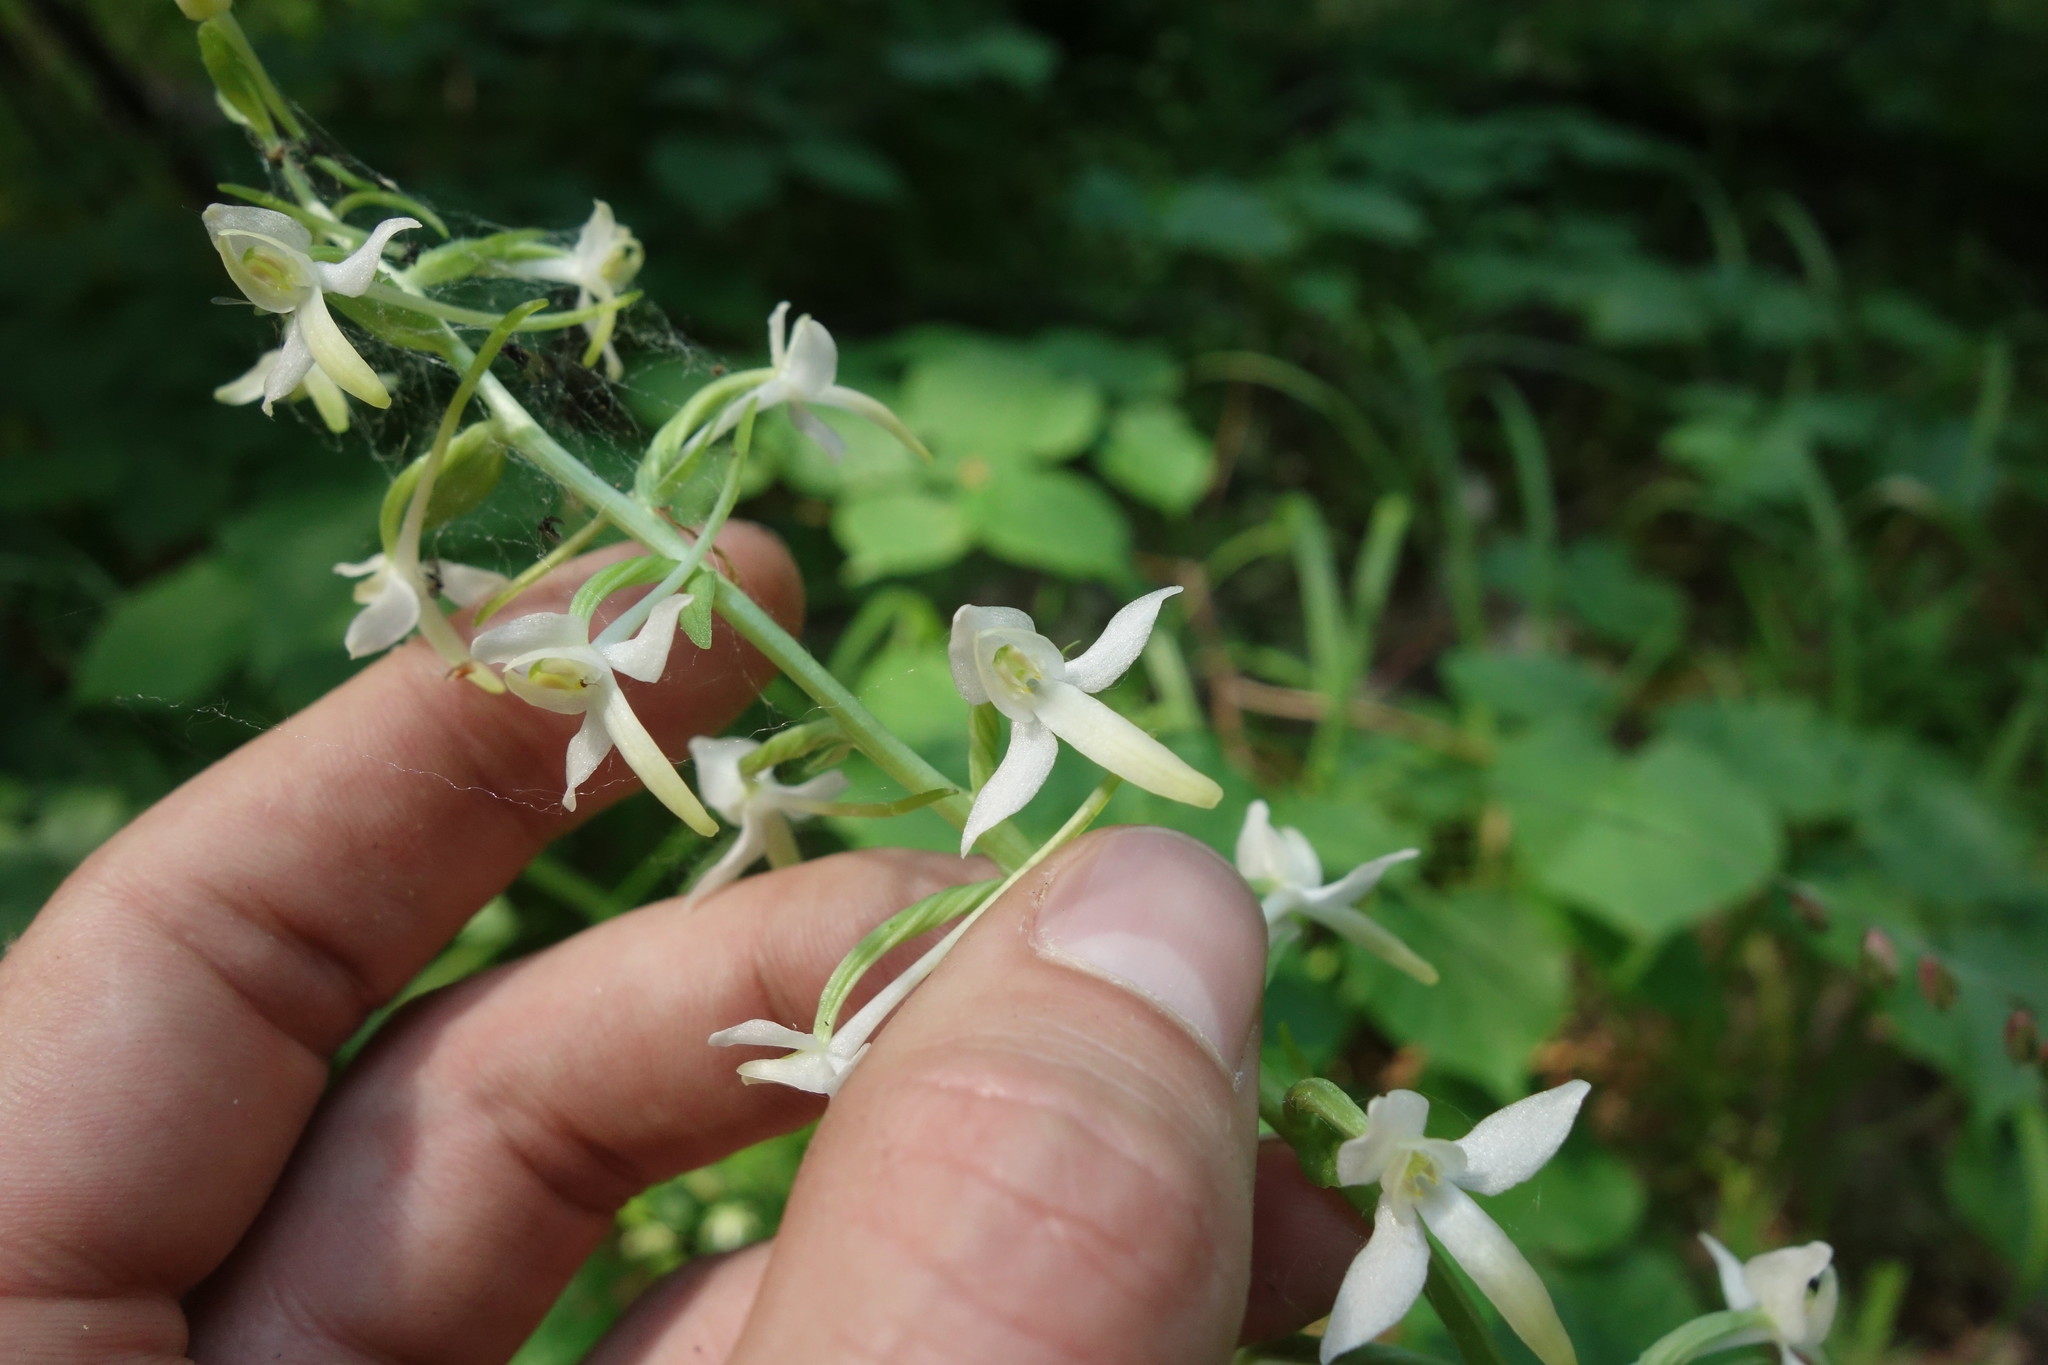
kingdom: Plantae
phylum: Tracheophyta
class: Liliopsida
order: Asparagales
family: Orchidaceae
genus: Platanthera
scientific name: Platanthera bifolia
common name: Lesser butterfly-orchid
